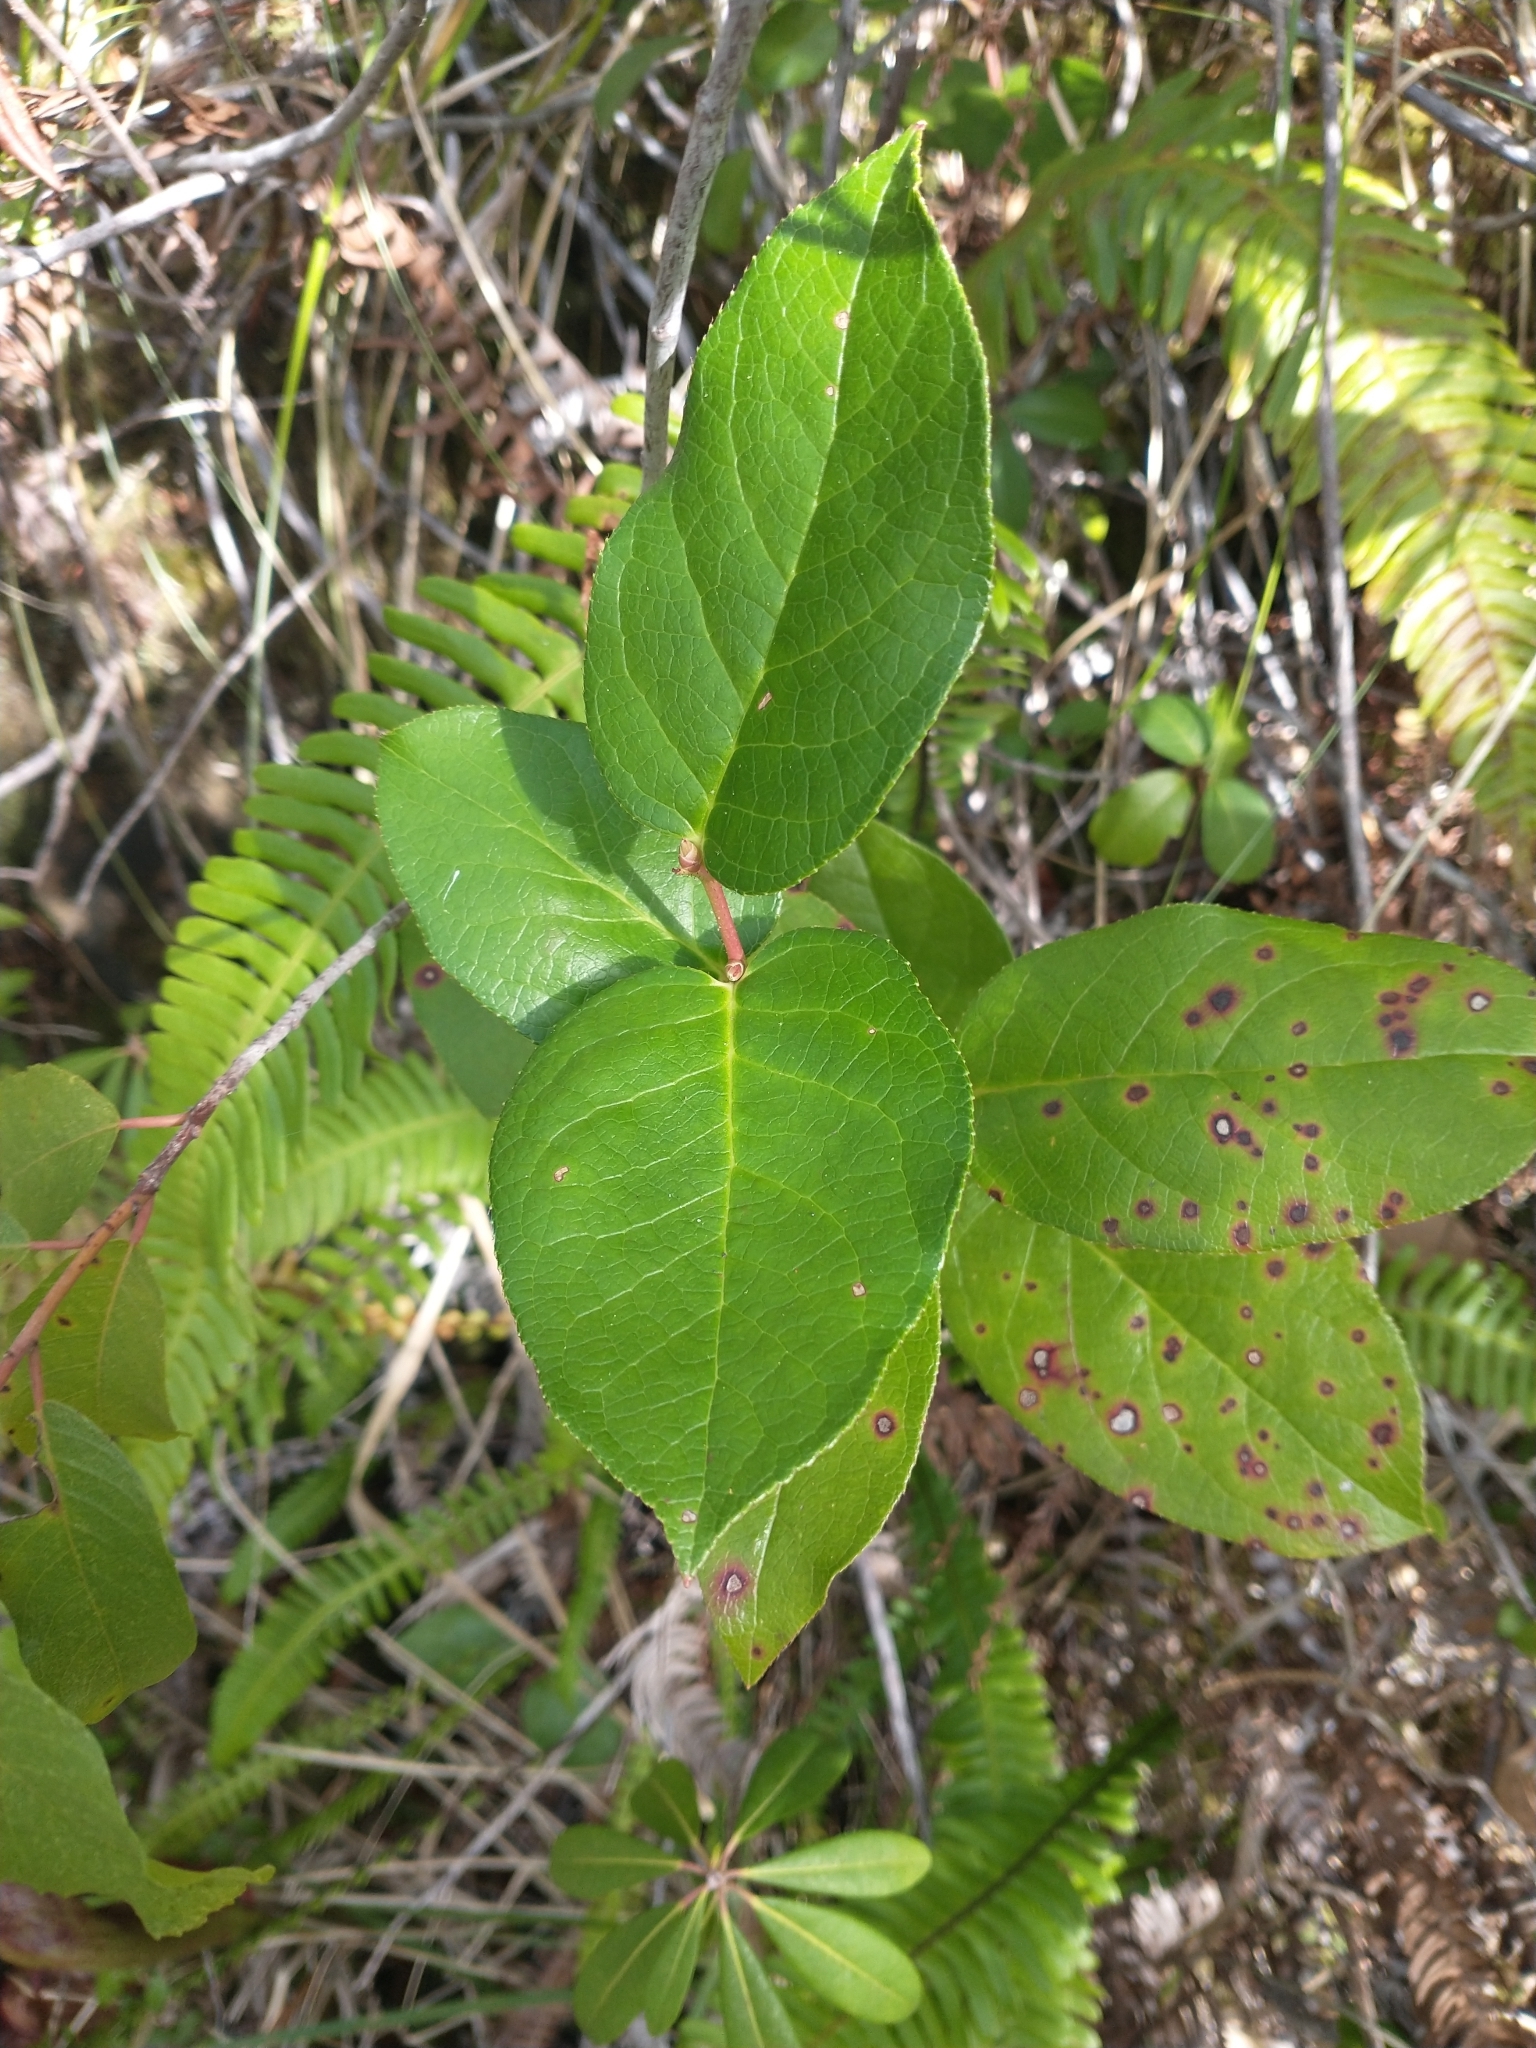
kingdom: Plantae
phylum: Tracheophyta
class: Magnoliopsida
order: Ericales
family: Ericaceae
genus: Gaultheria
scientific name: Gaultheria shallon
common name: Shallon
